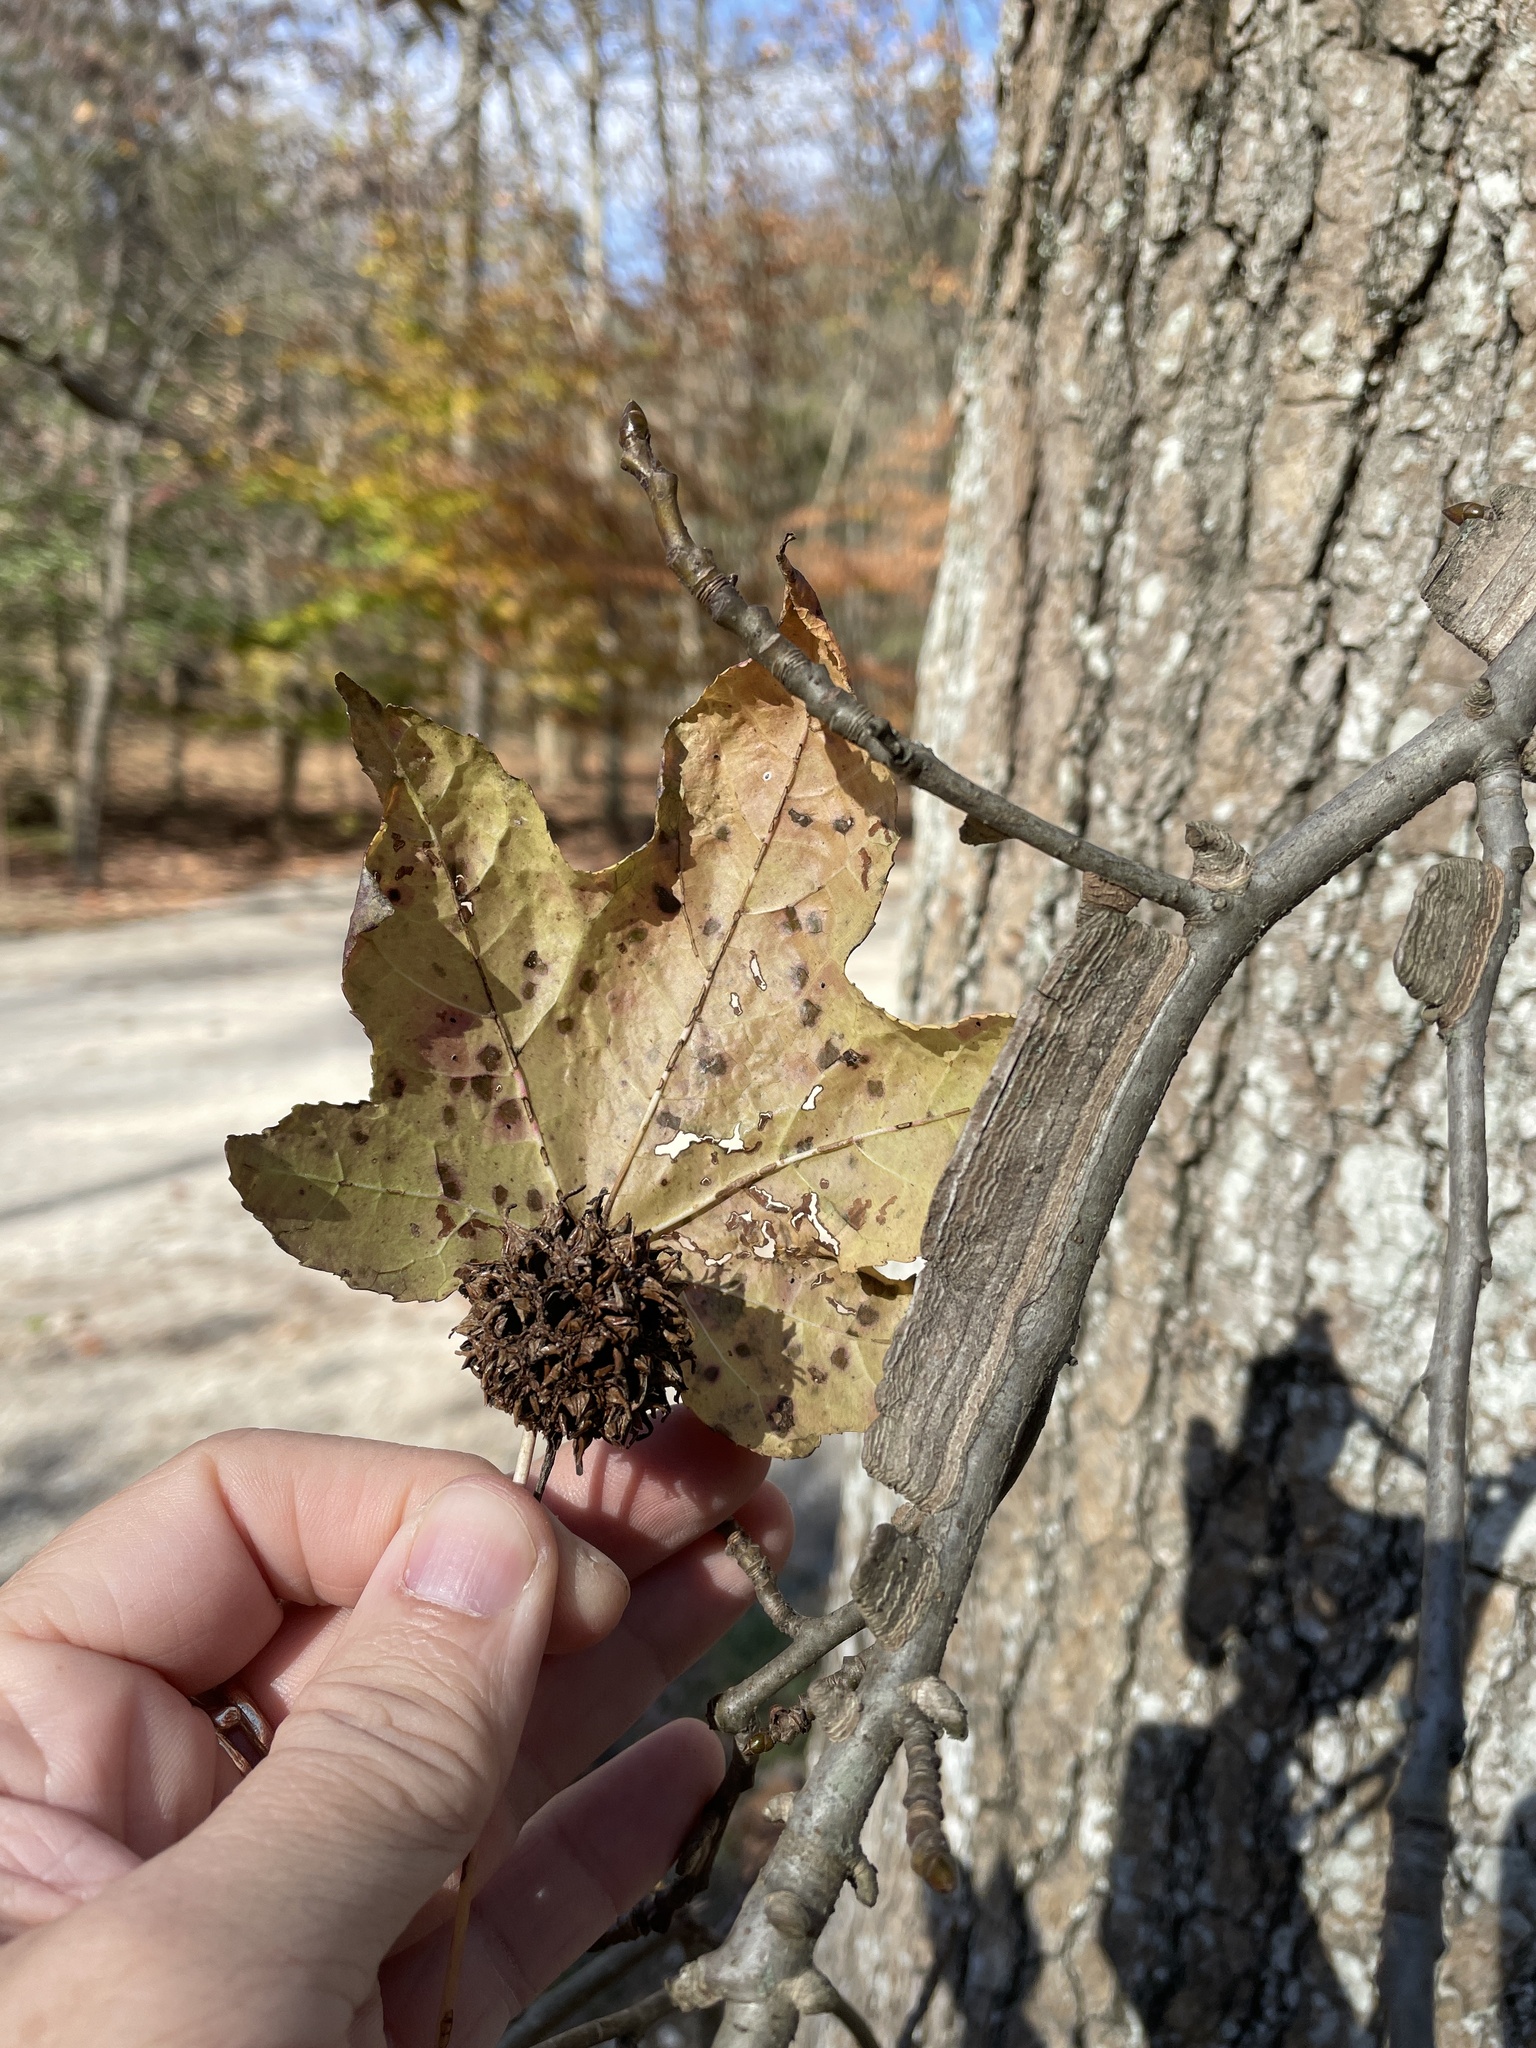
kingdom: Plantae
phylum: Tracheophyta
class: Magnoliopsida
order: Saxifragales
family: Altingiaceae
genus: Liquidambar
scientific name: Liquidambar styraciflua
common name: Sweet gum
